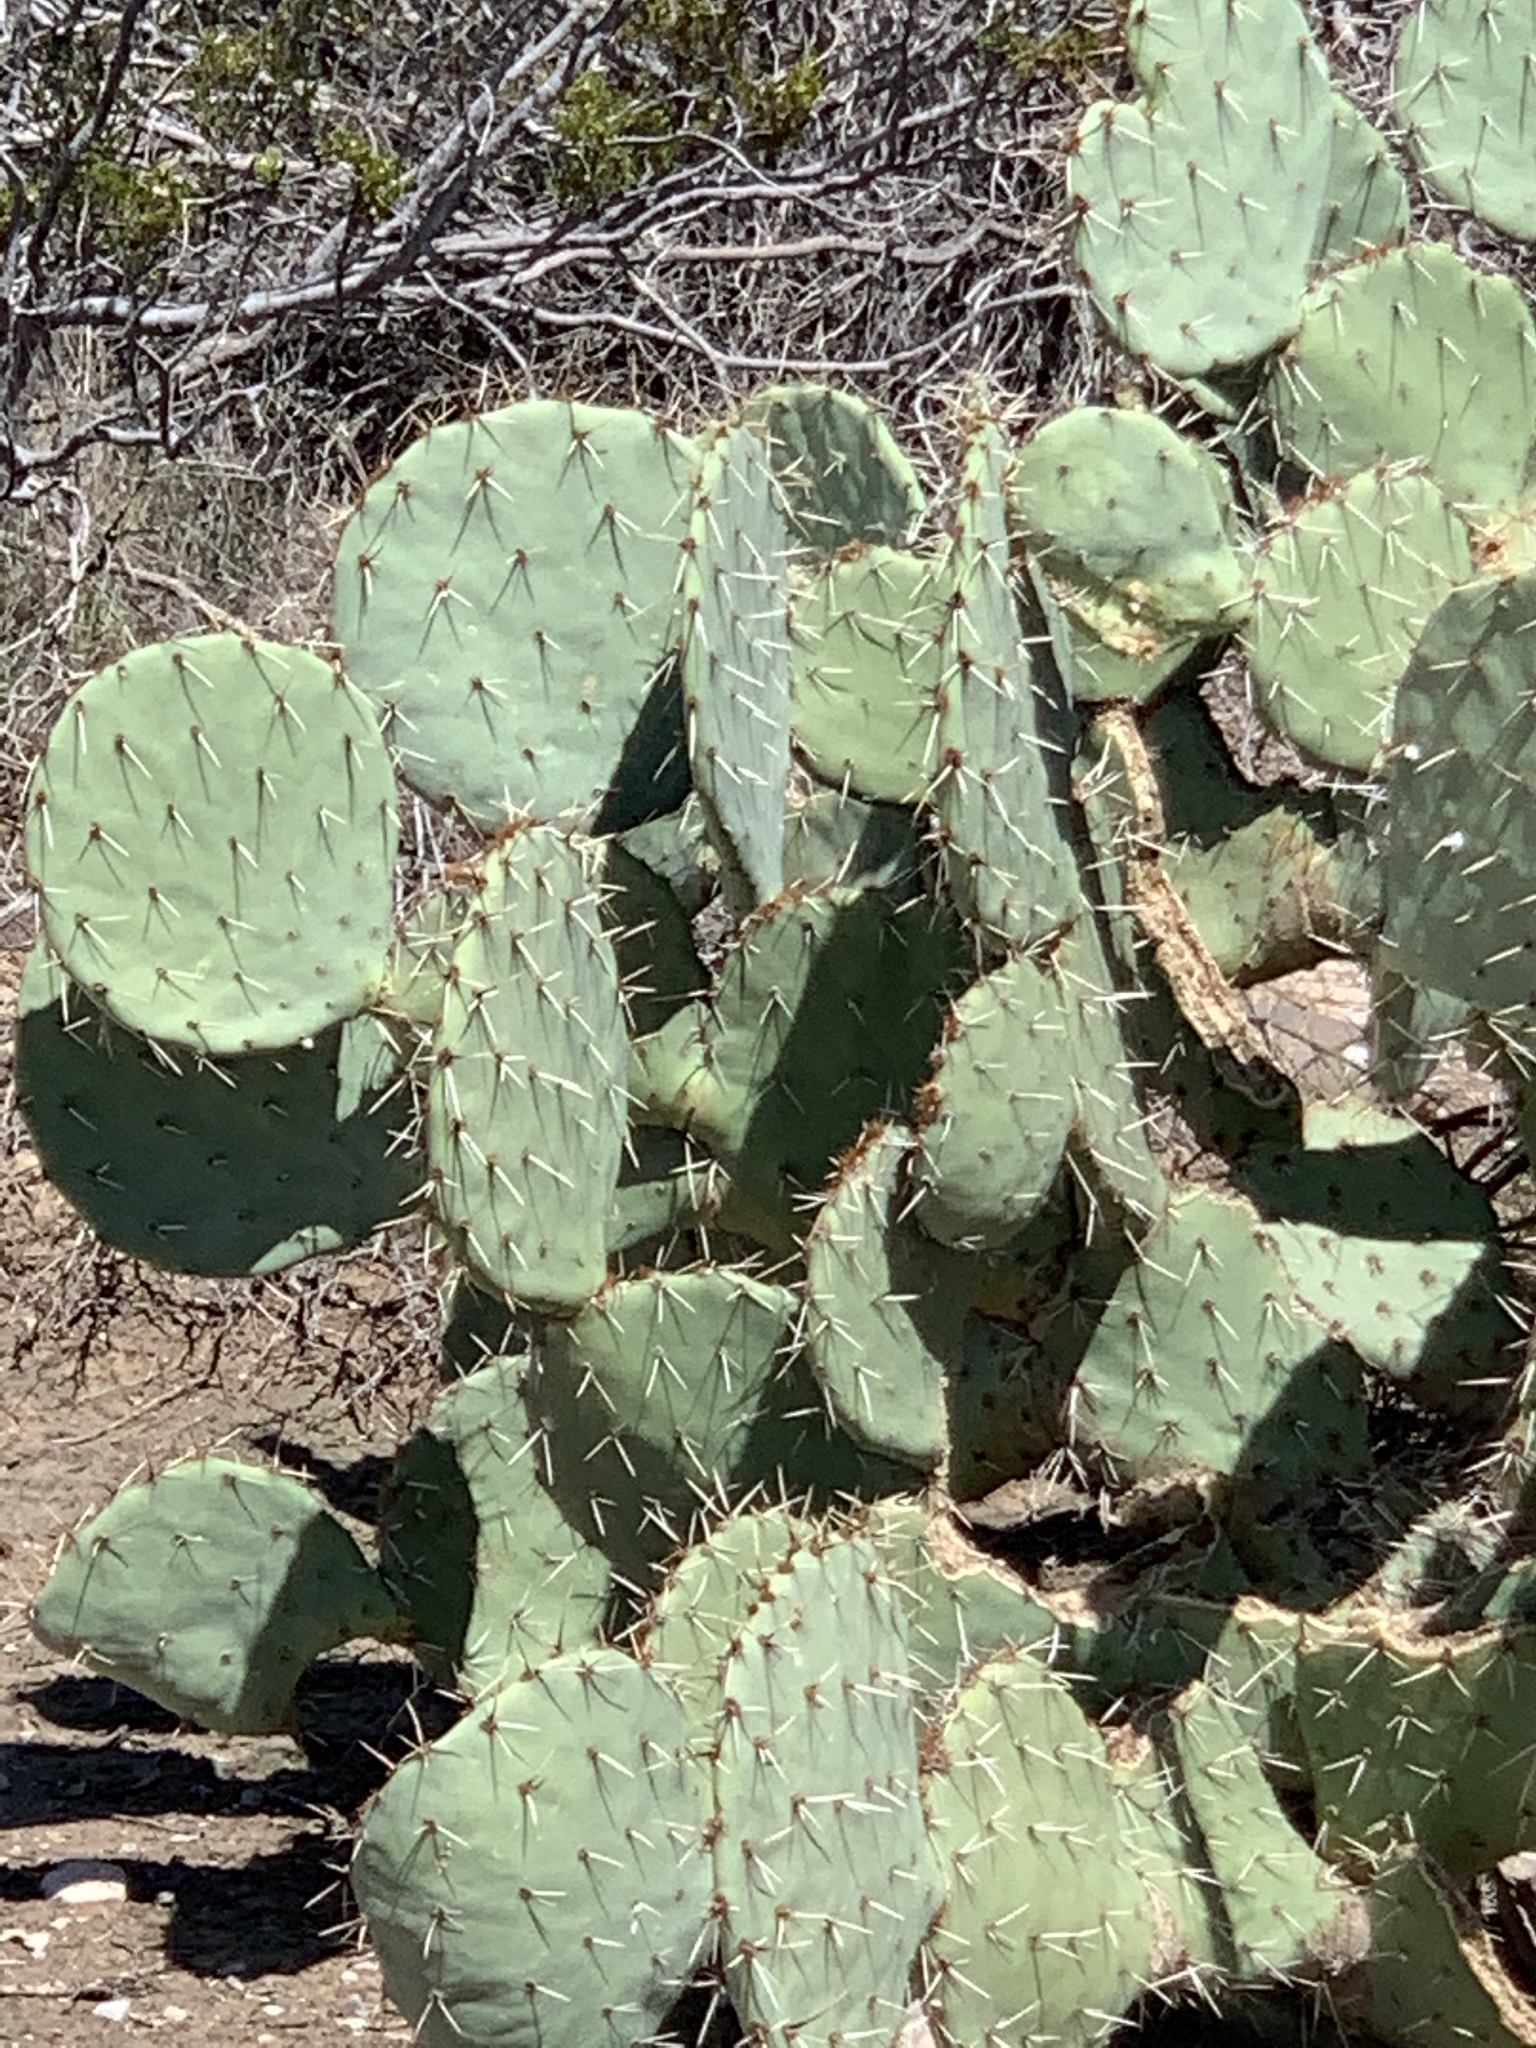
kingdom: Plantae
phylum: Tracheophyta
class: Magnoliopsida
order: Caryophyllales
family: Cactaceae
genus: Opuntia
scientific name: Opuntia engelmannii
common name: Cactus-apple
